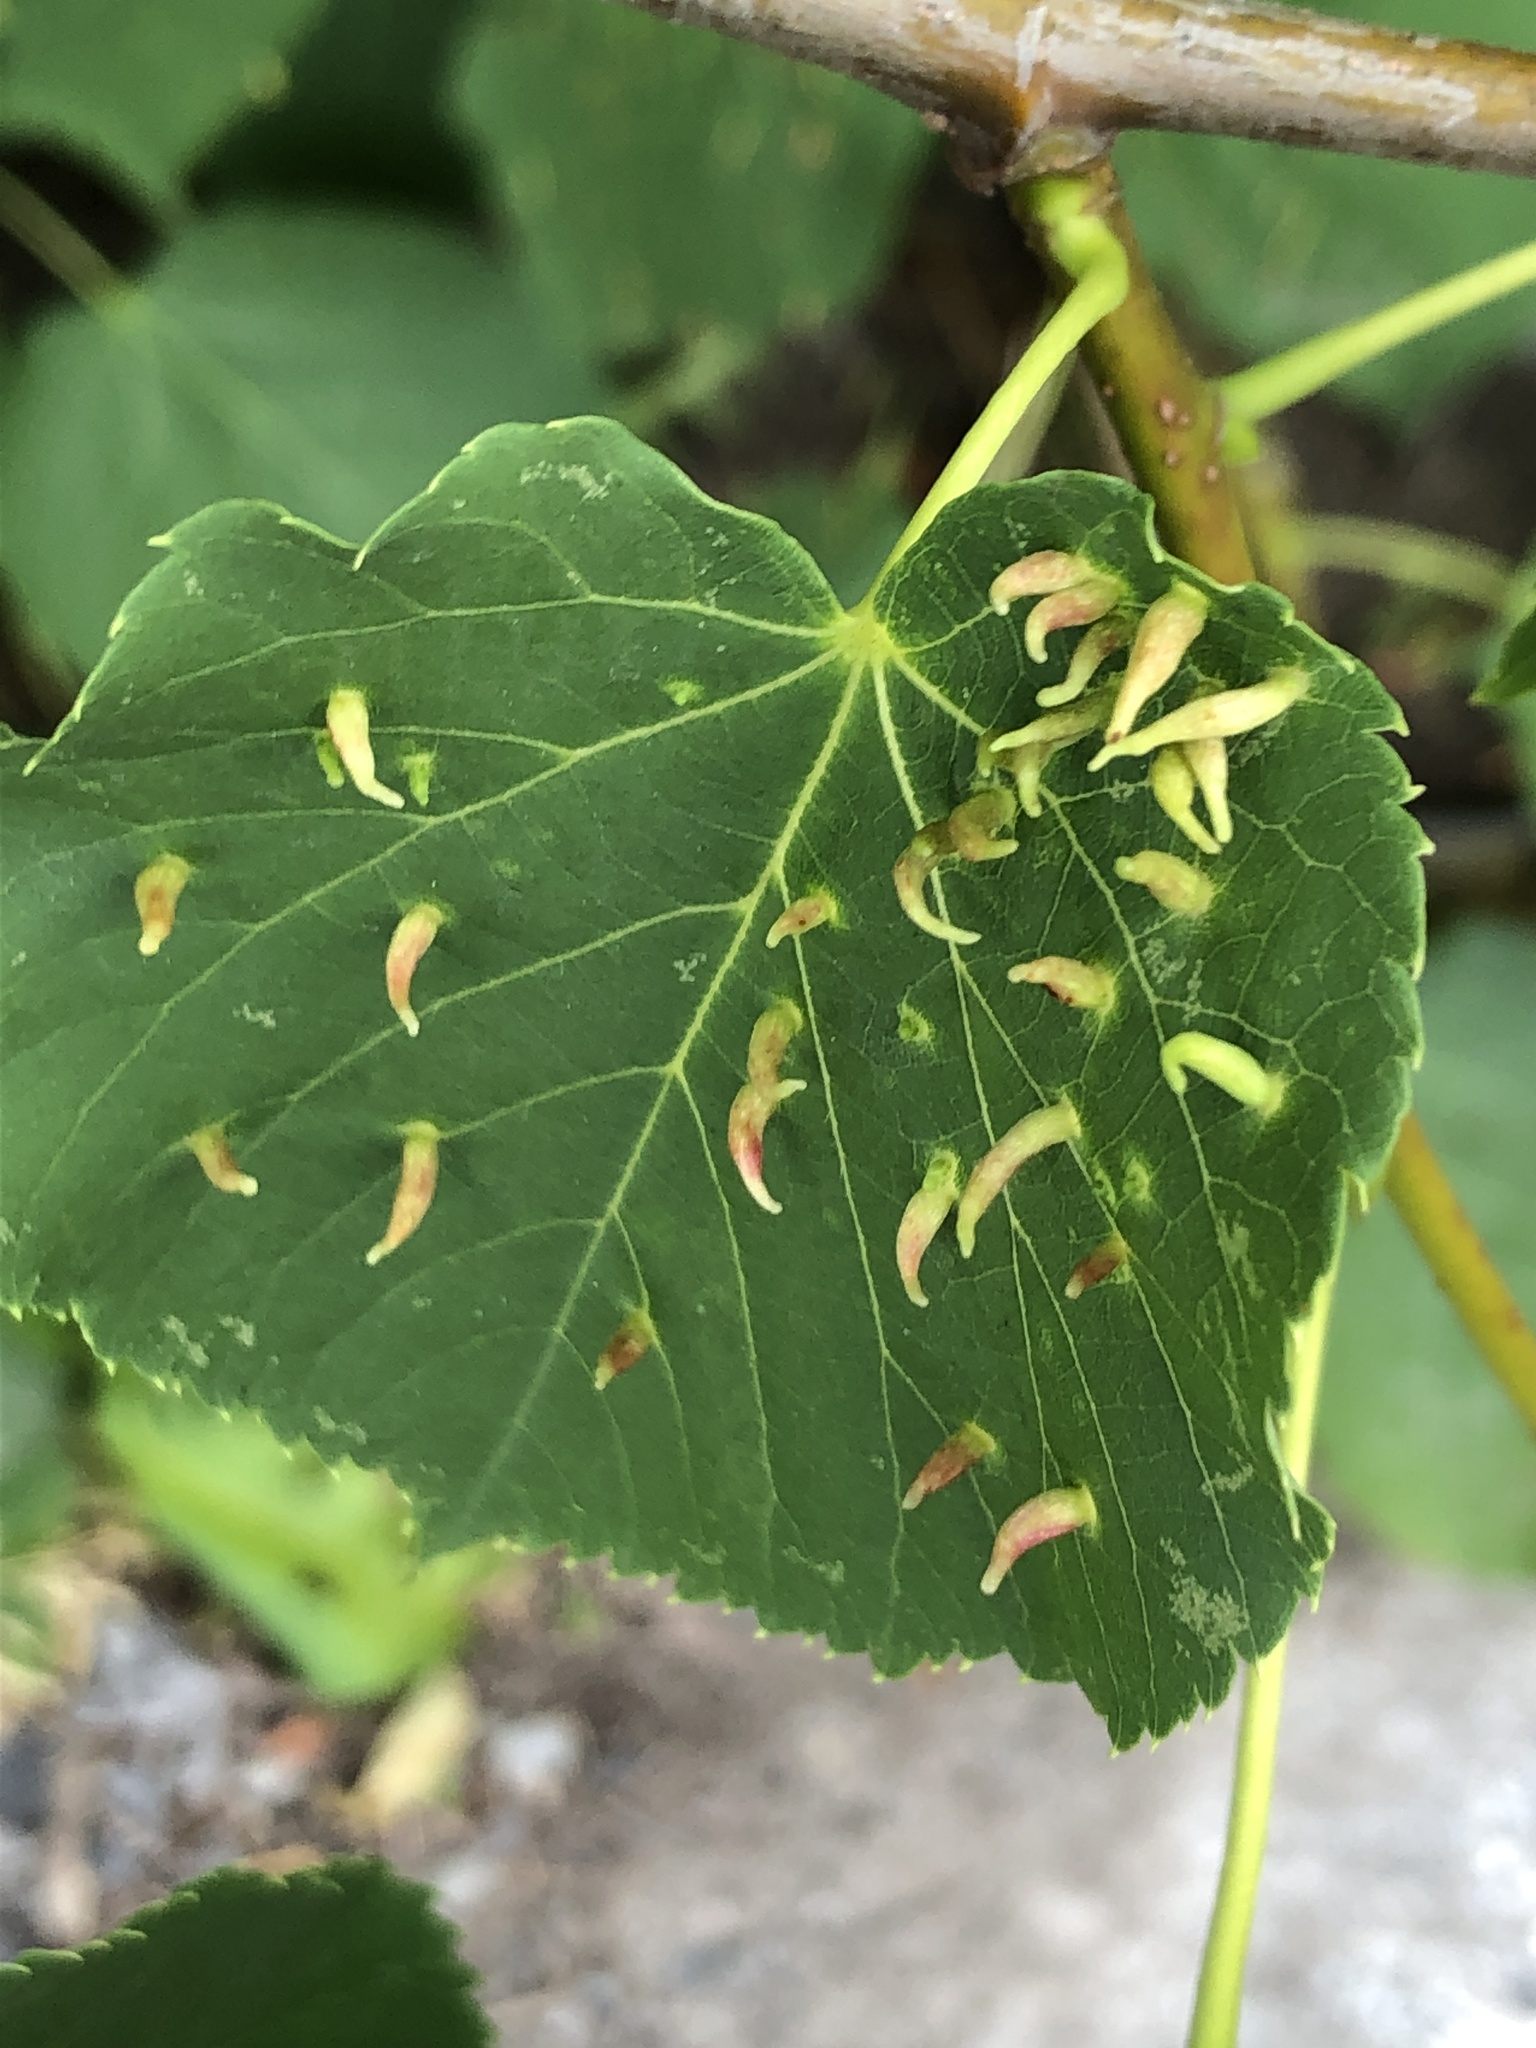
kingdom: Animalia
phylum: Arthropoda
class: Arachnida
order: Trombidiformes
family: Eriophyidae
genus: Eriophyes
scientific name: Eriophyes tiliae
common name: Red nail gall mite
